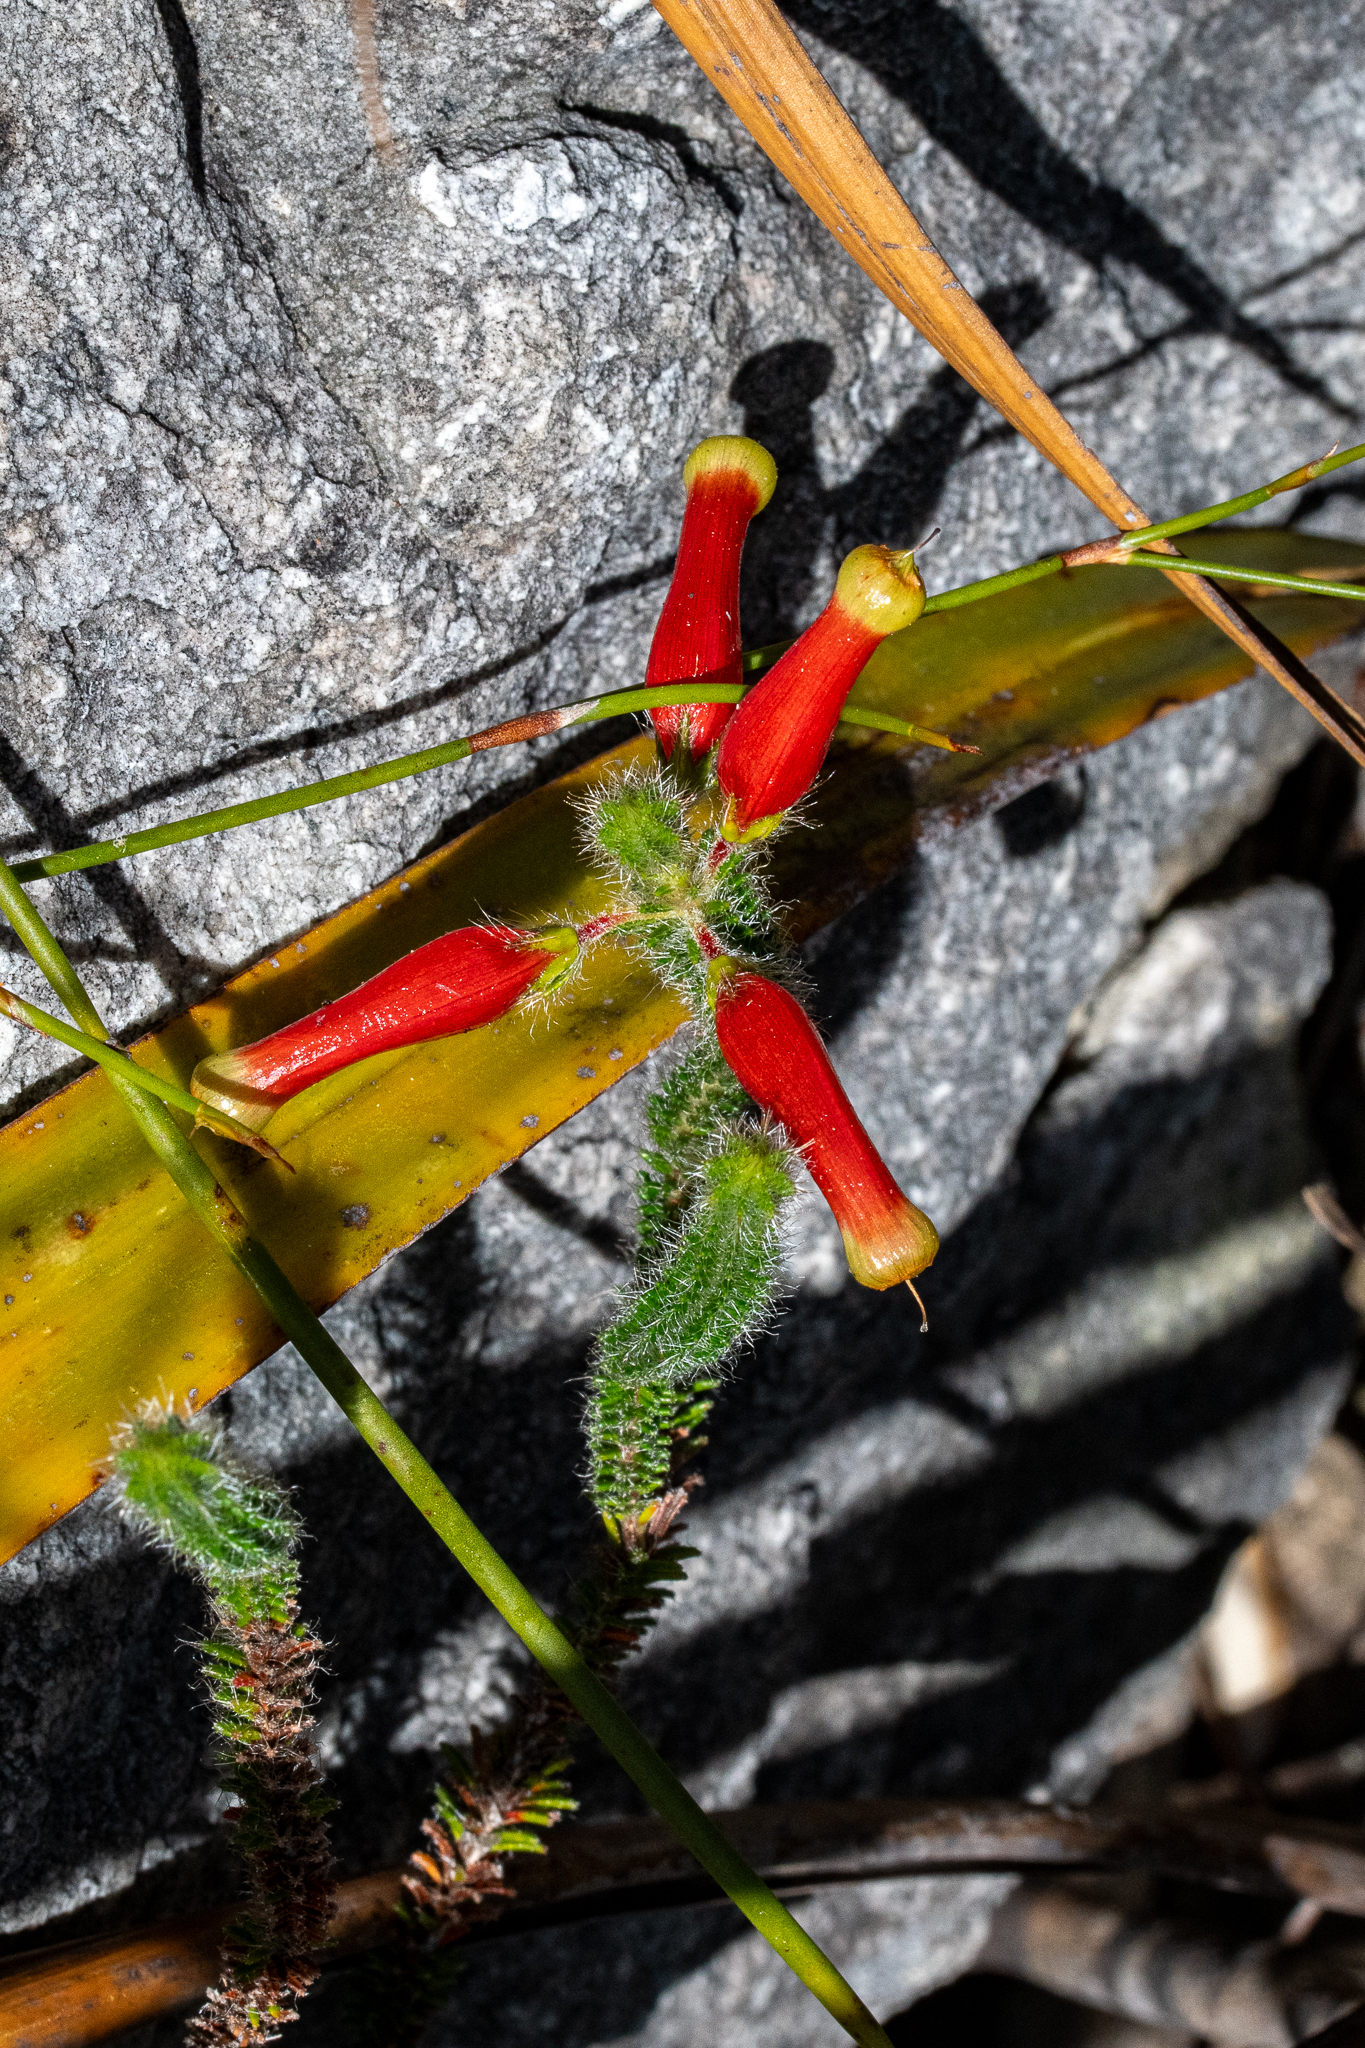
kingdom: Plantae
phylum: Tracheophyta
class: Magnoliopsida
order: Ericales
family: Ericaceae
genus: Erica
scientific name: Erica massonii
